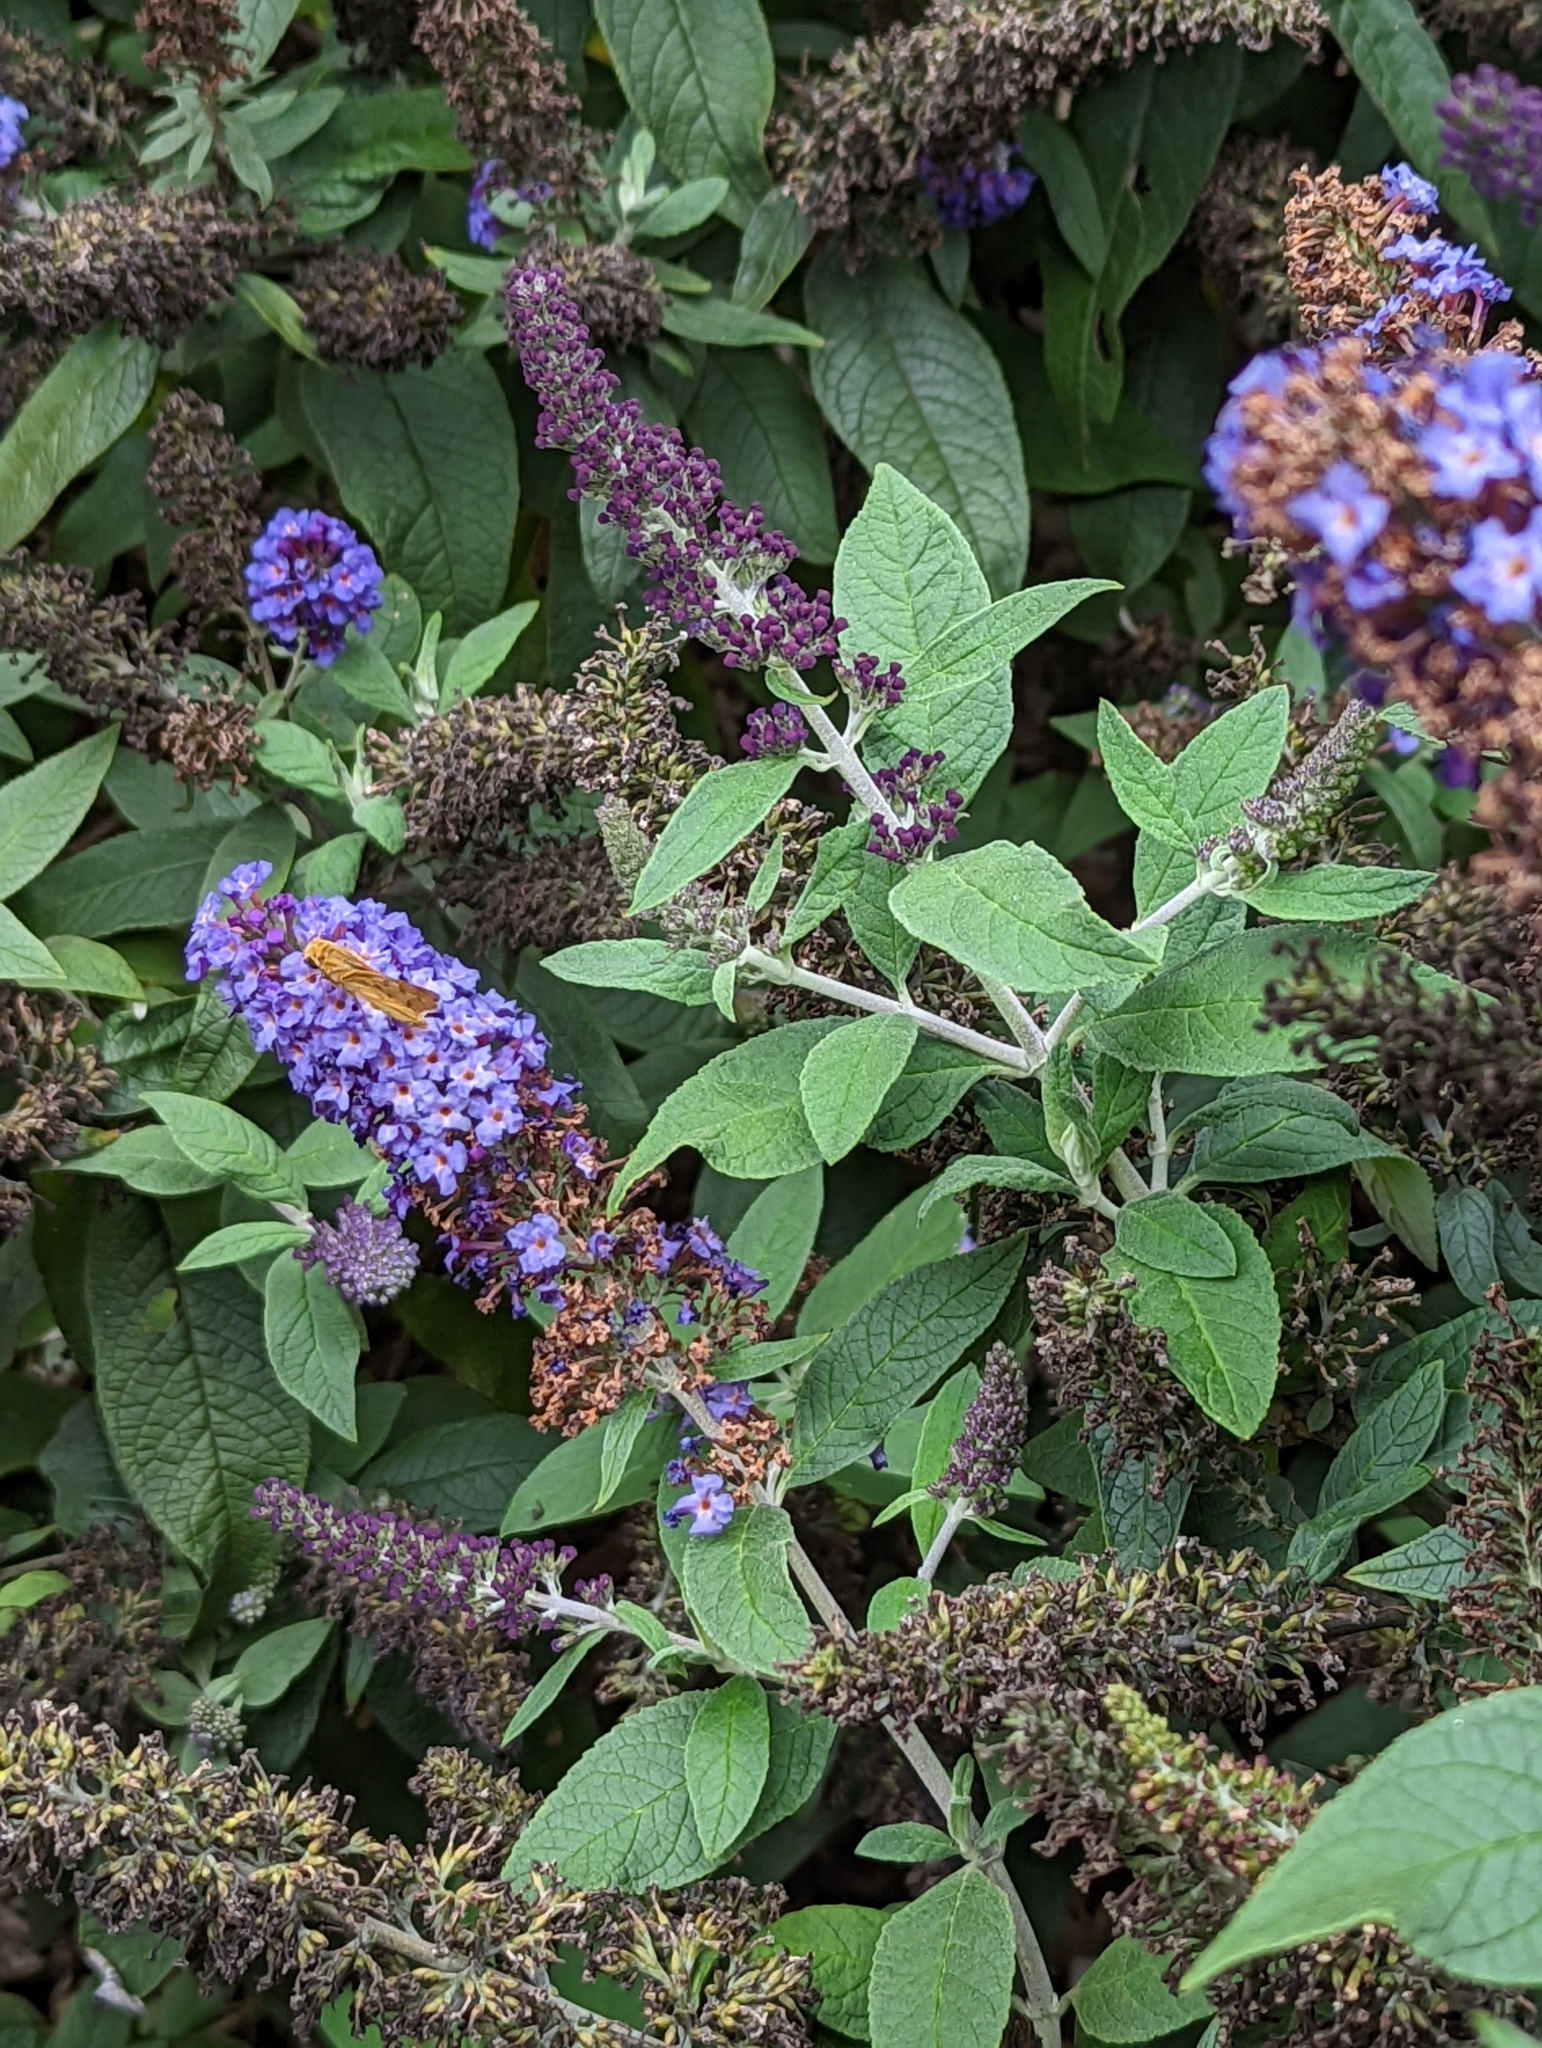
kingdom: Animalia
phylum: Arthropoda
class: Insecta
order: Lepidoptera
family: Hesperiidae
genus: Hylephila
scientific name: Hylephila phyleus
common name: Fiery skipper
